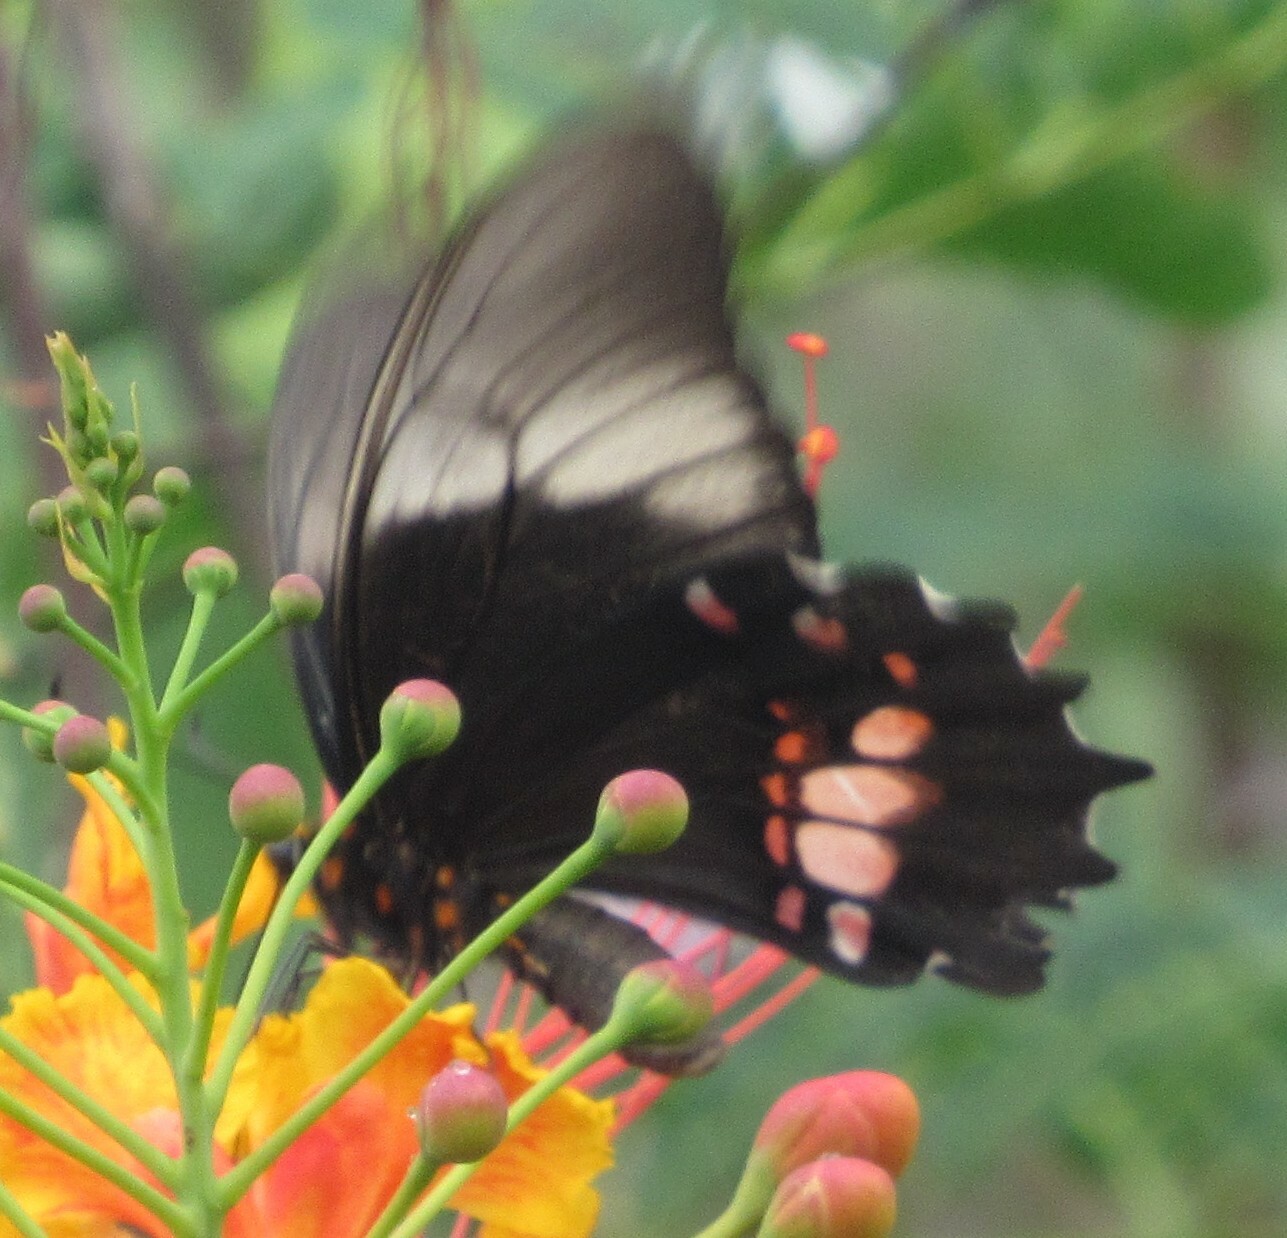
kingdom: Animalia
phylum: Arthropoda
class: Insecta
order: Lepidoptera
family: Papilionidae
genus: Papilio
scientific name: Papilio anchisiades
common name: Idaes swallowtail
